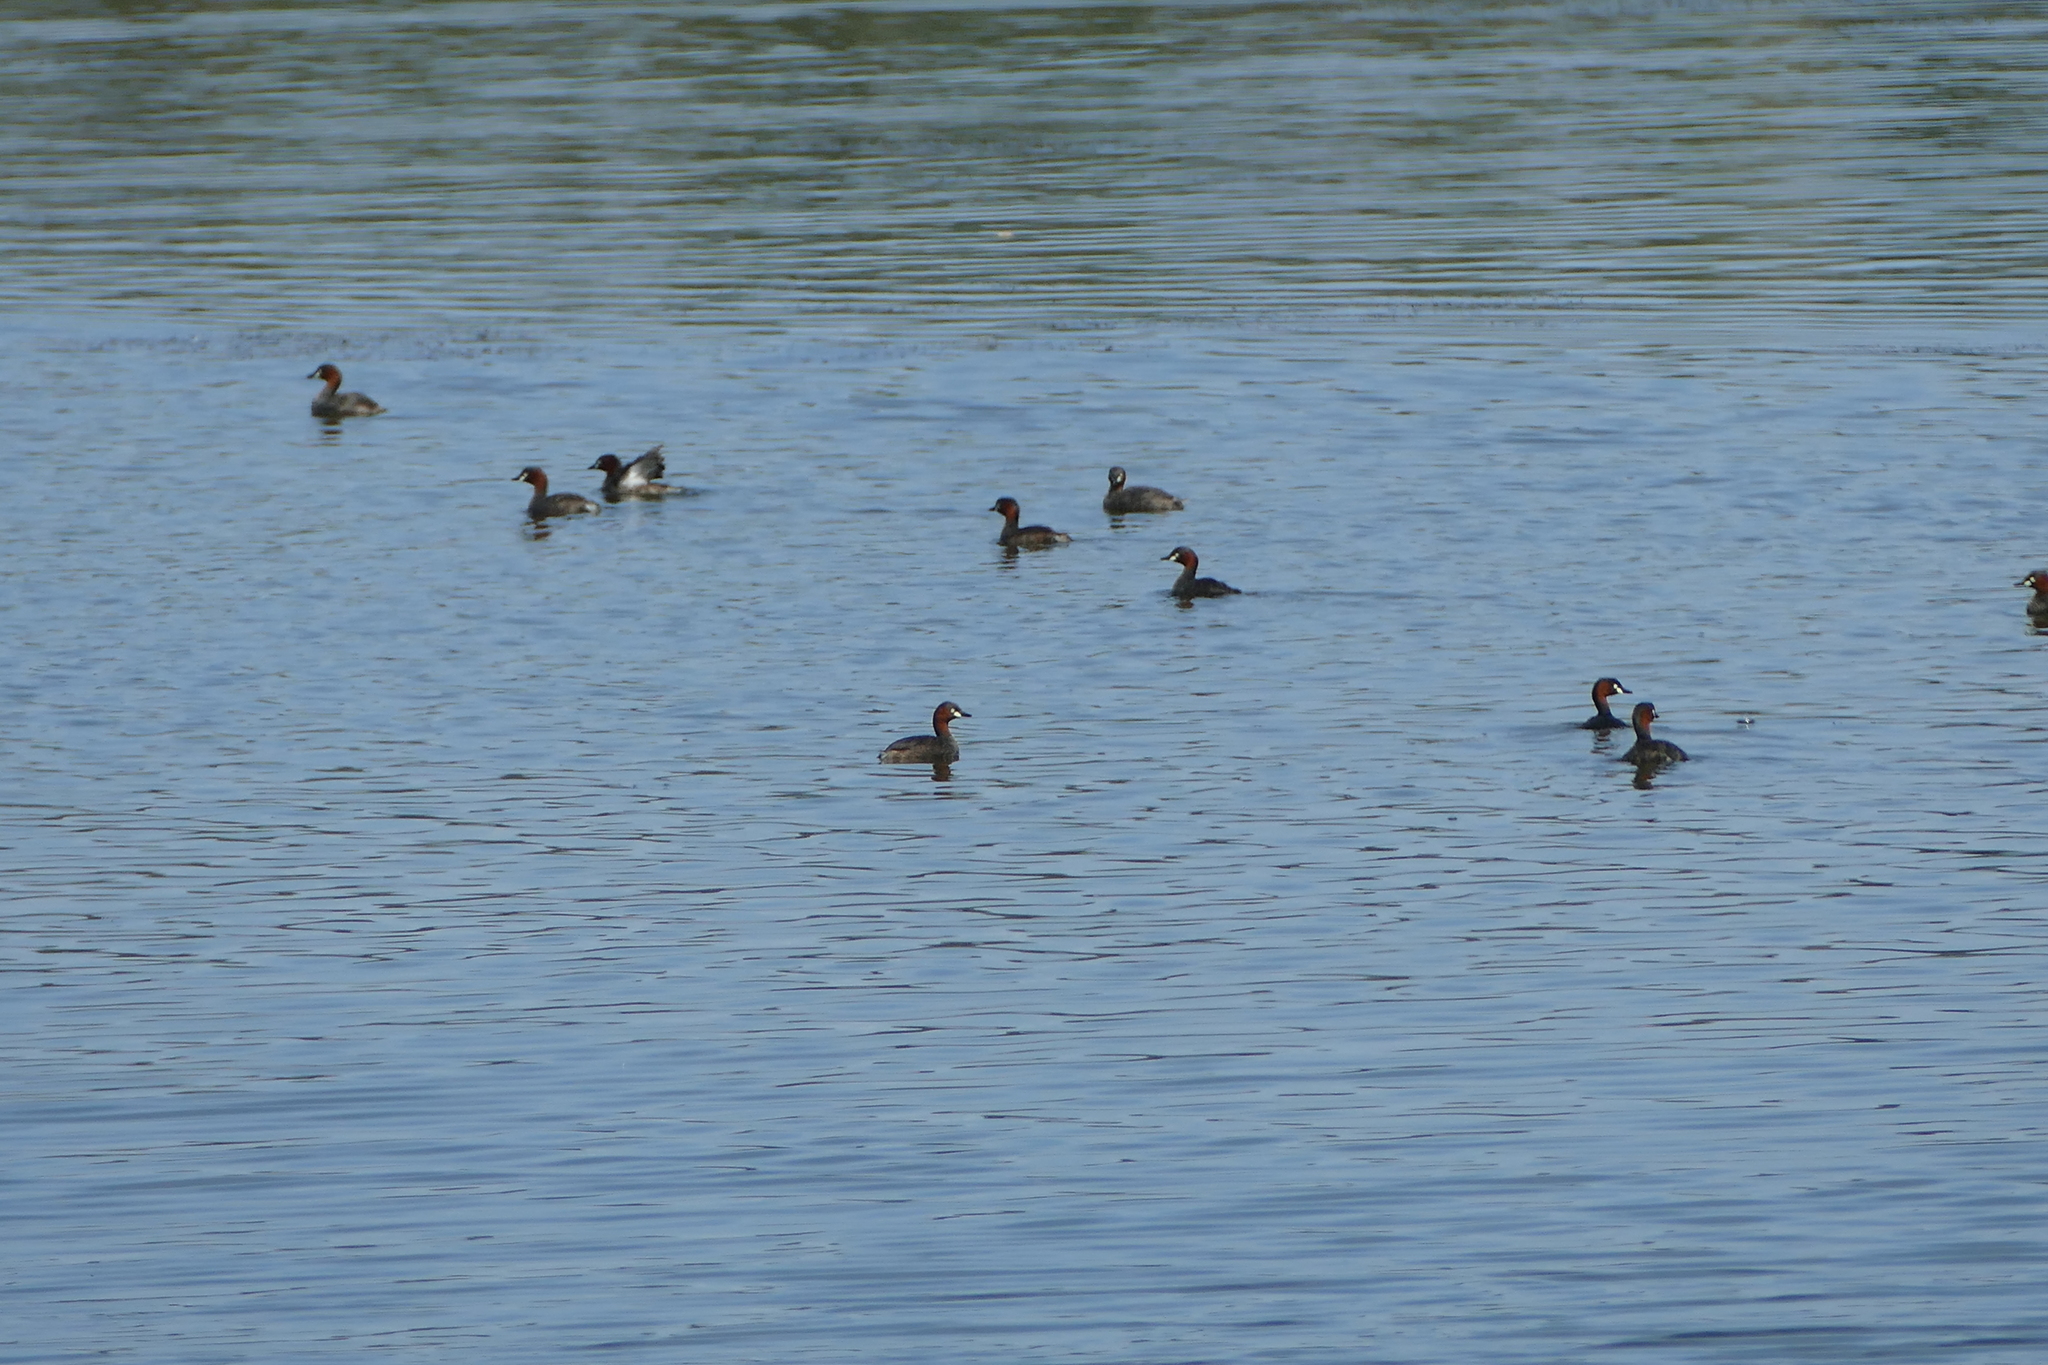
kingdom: Animalia
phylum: Chordata
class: Aves
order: Podicipediformes
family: Podicipedidae
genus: Tachybaptus
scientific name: Tachybaptus ruficollis
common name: Little grebe
